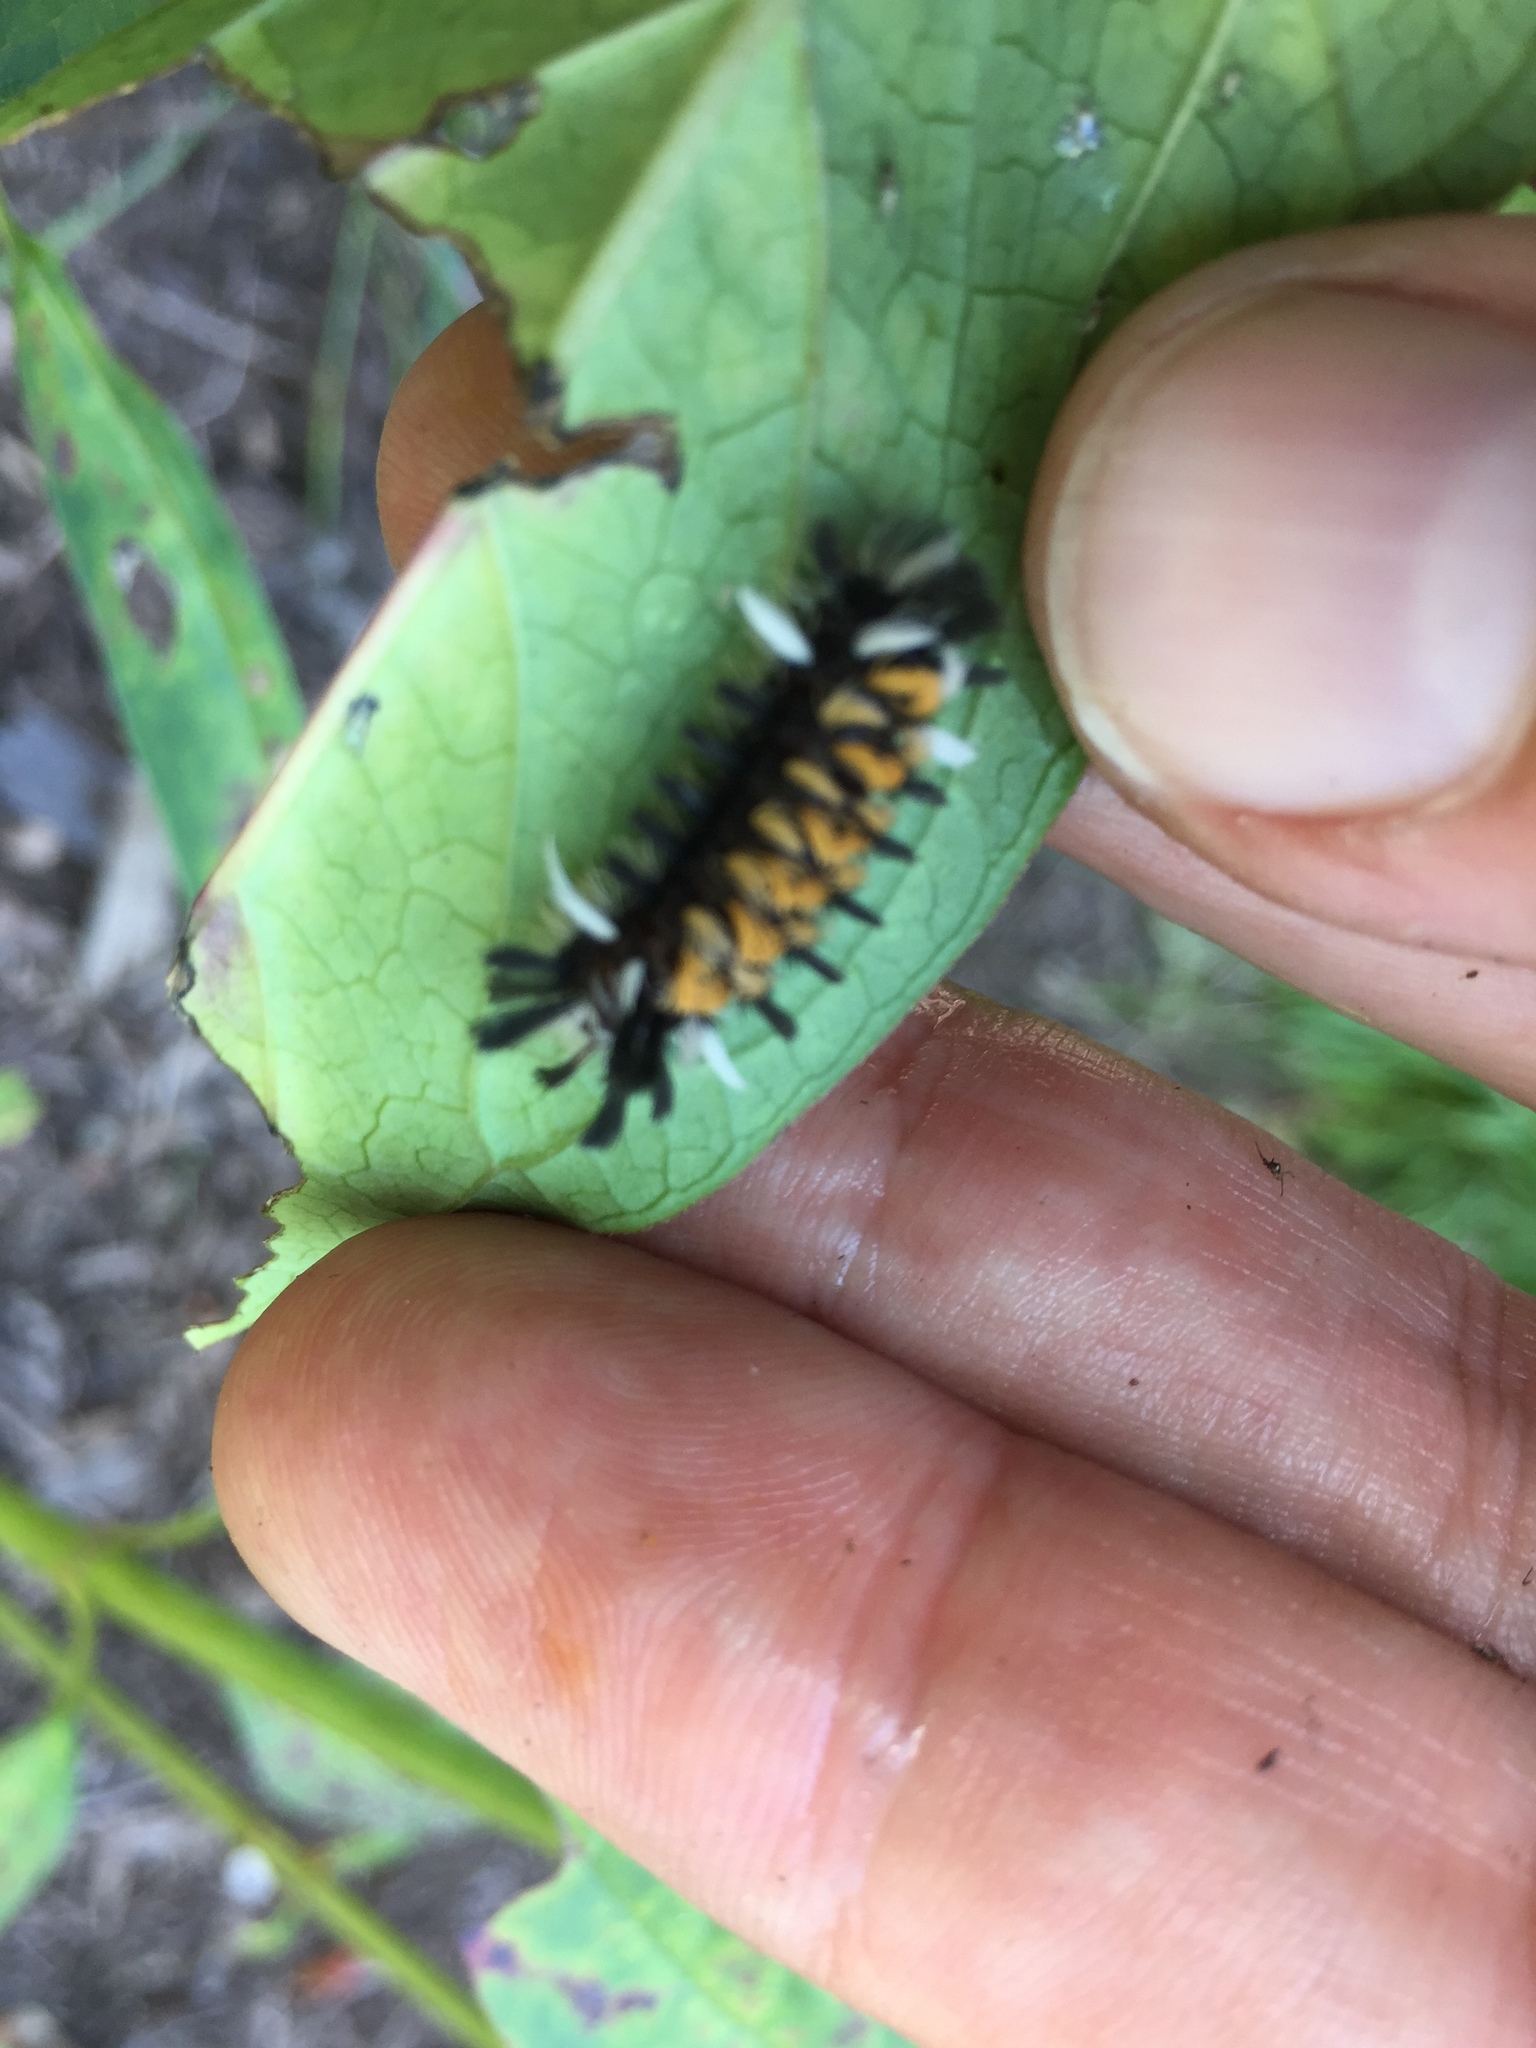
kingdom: Animalia
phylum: Arthropoda
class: Insecta
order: Lepidoptera
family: Erebidae
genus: Euchaetes
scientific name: Euchaetes egle
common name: Milkweed tussock moth
